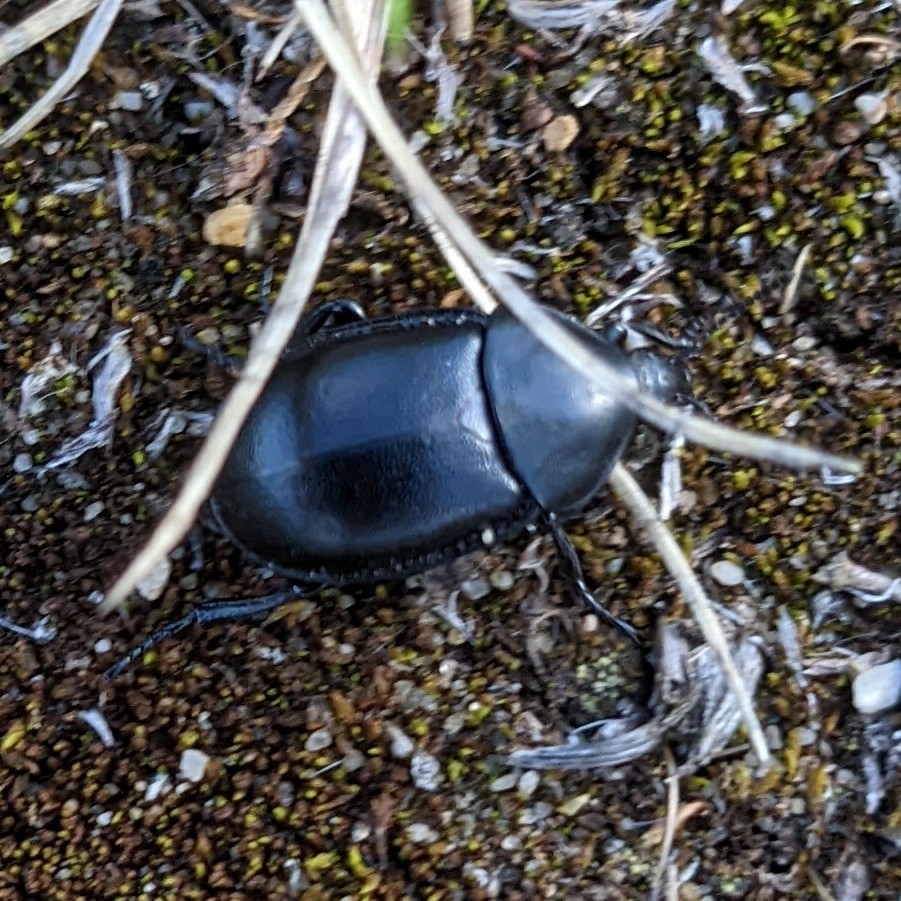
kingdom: Animalia
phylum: Arthropoda
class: Insecta
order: Coleoptera
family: Staphylinidae
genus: Silpha
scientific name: Silpha laevigata
